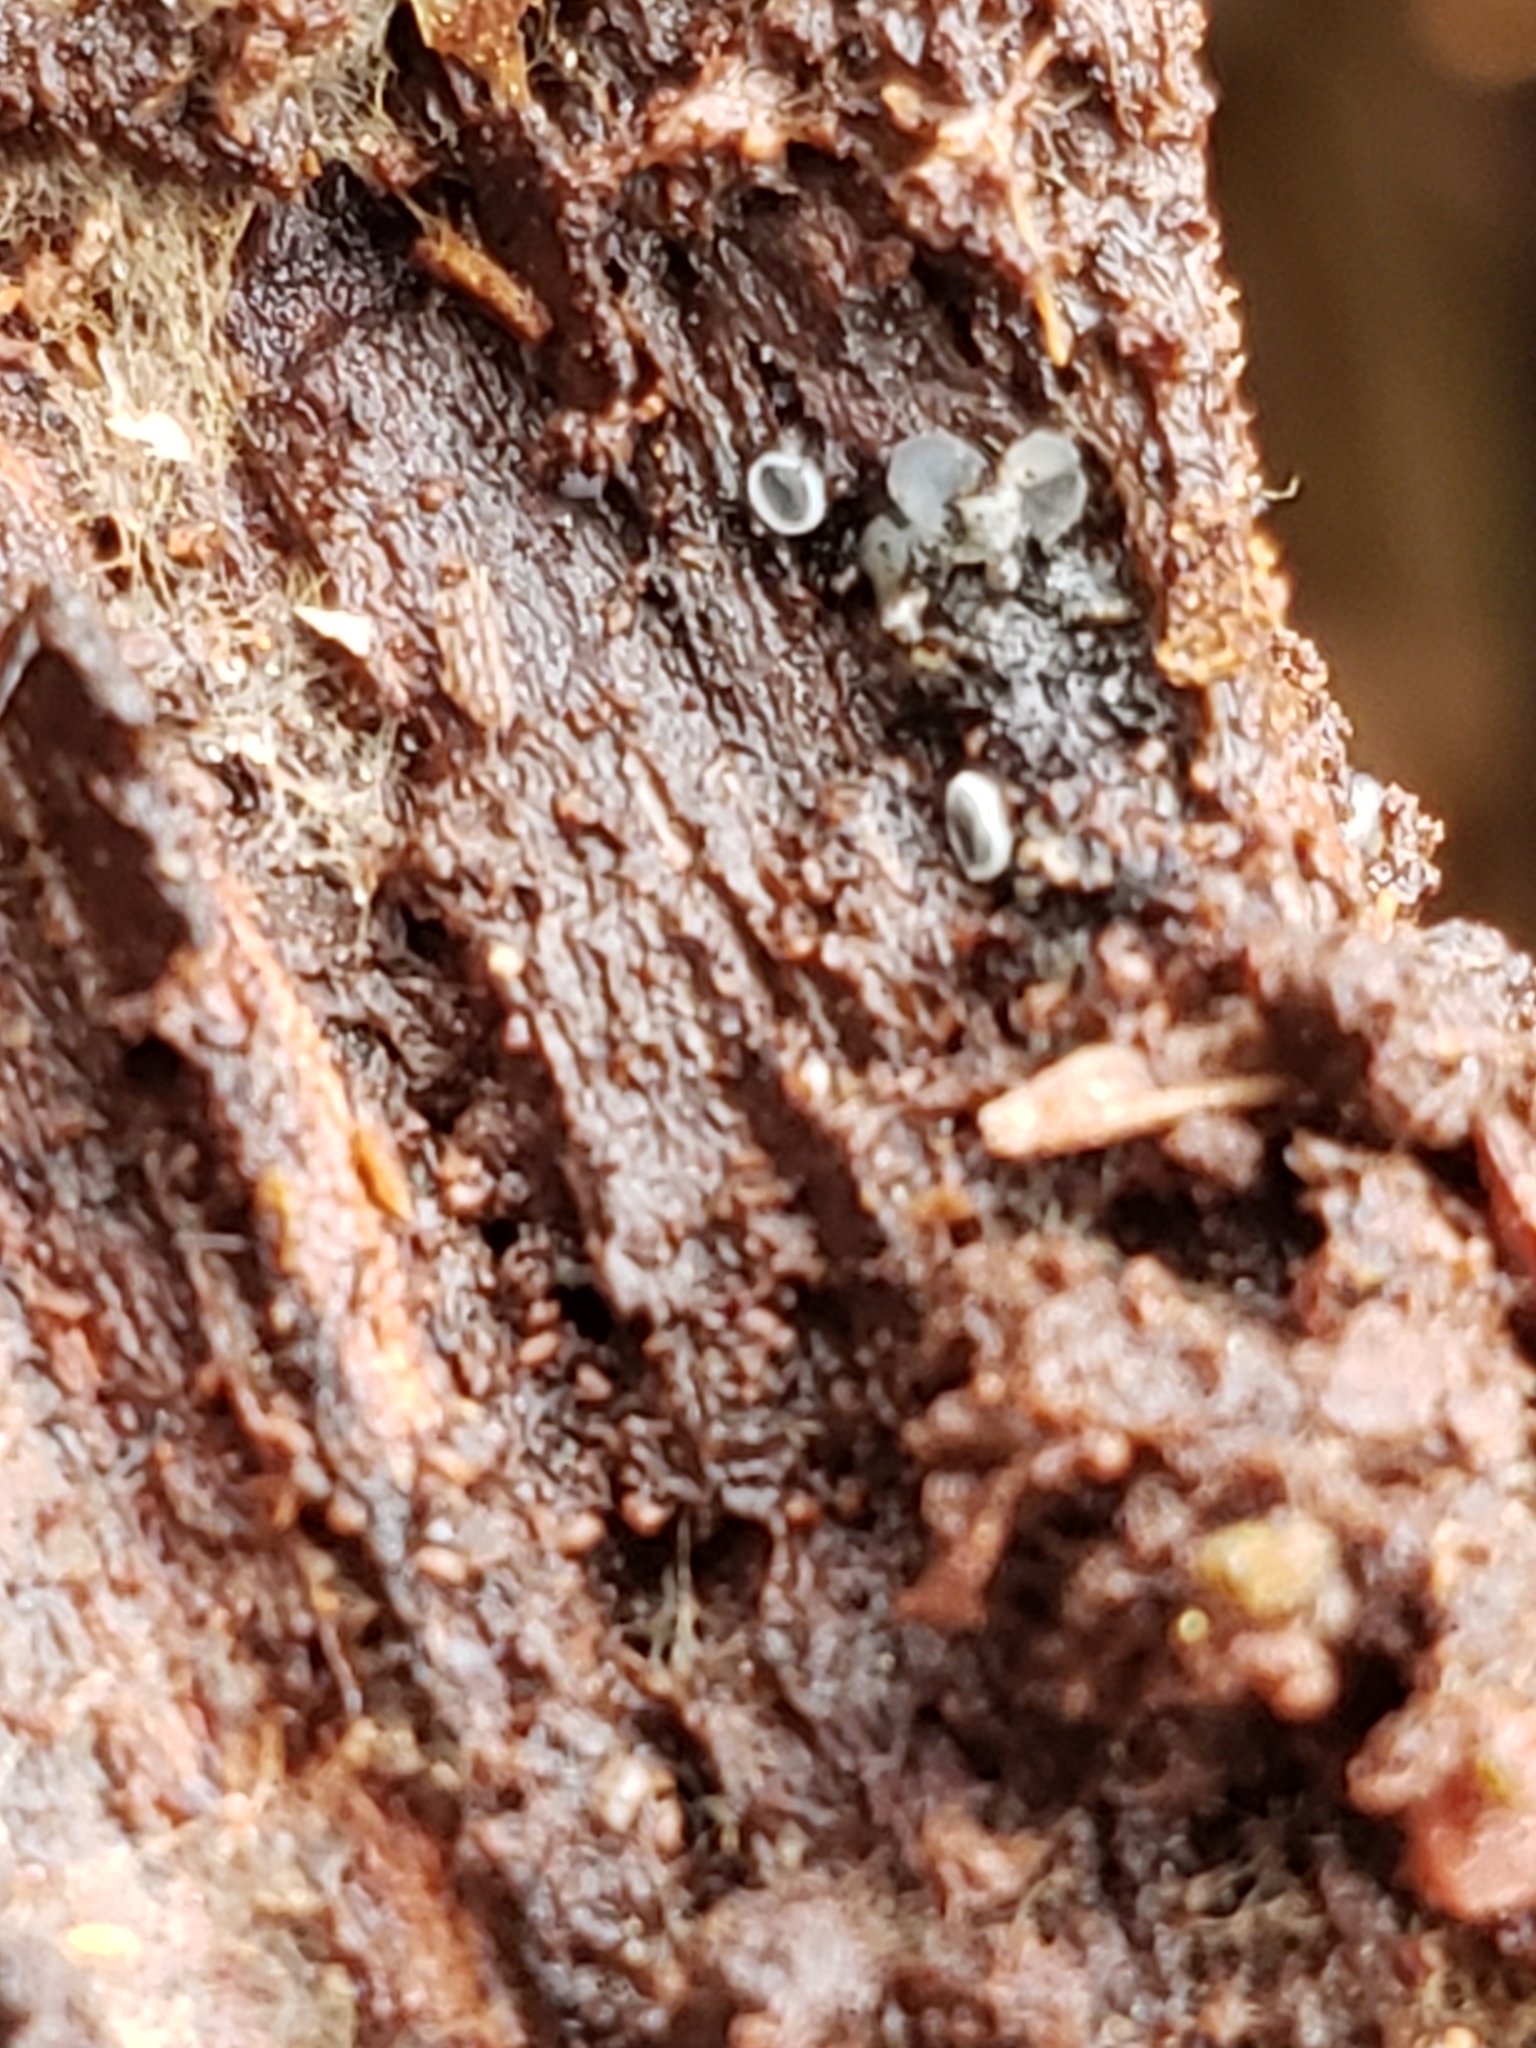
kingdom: Fungi
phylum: Ascomycota
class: Leotiomycetes
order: Helotiales
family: Chlorospleniaceae
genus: Chlorosplenium
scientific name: Chlorosplenium chlora
